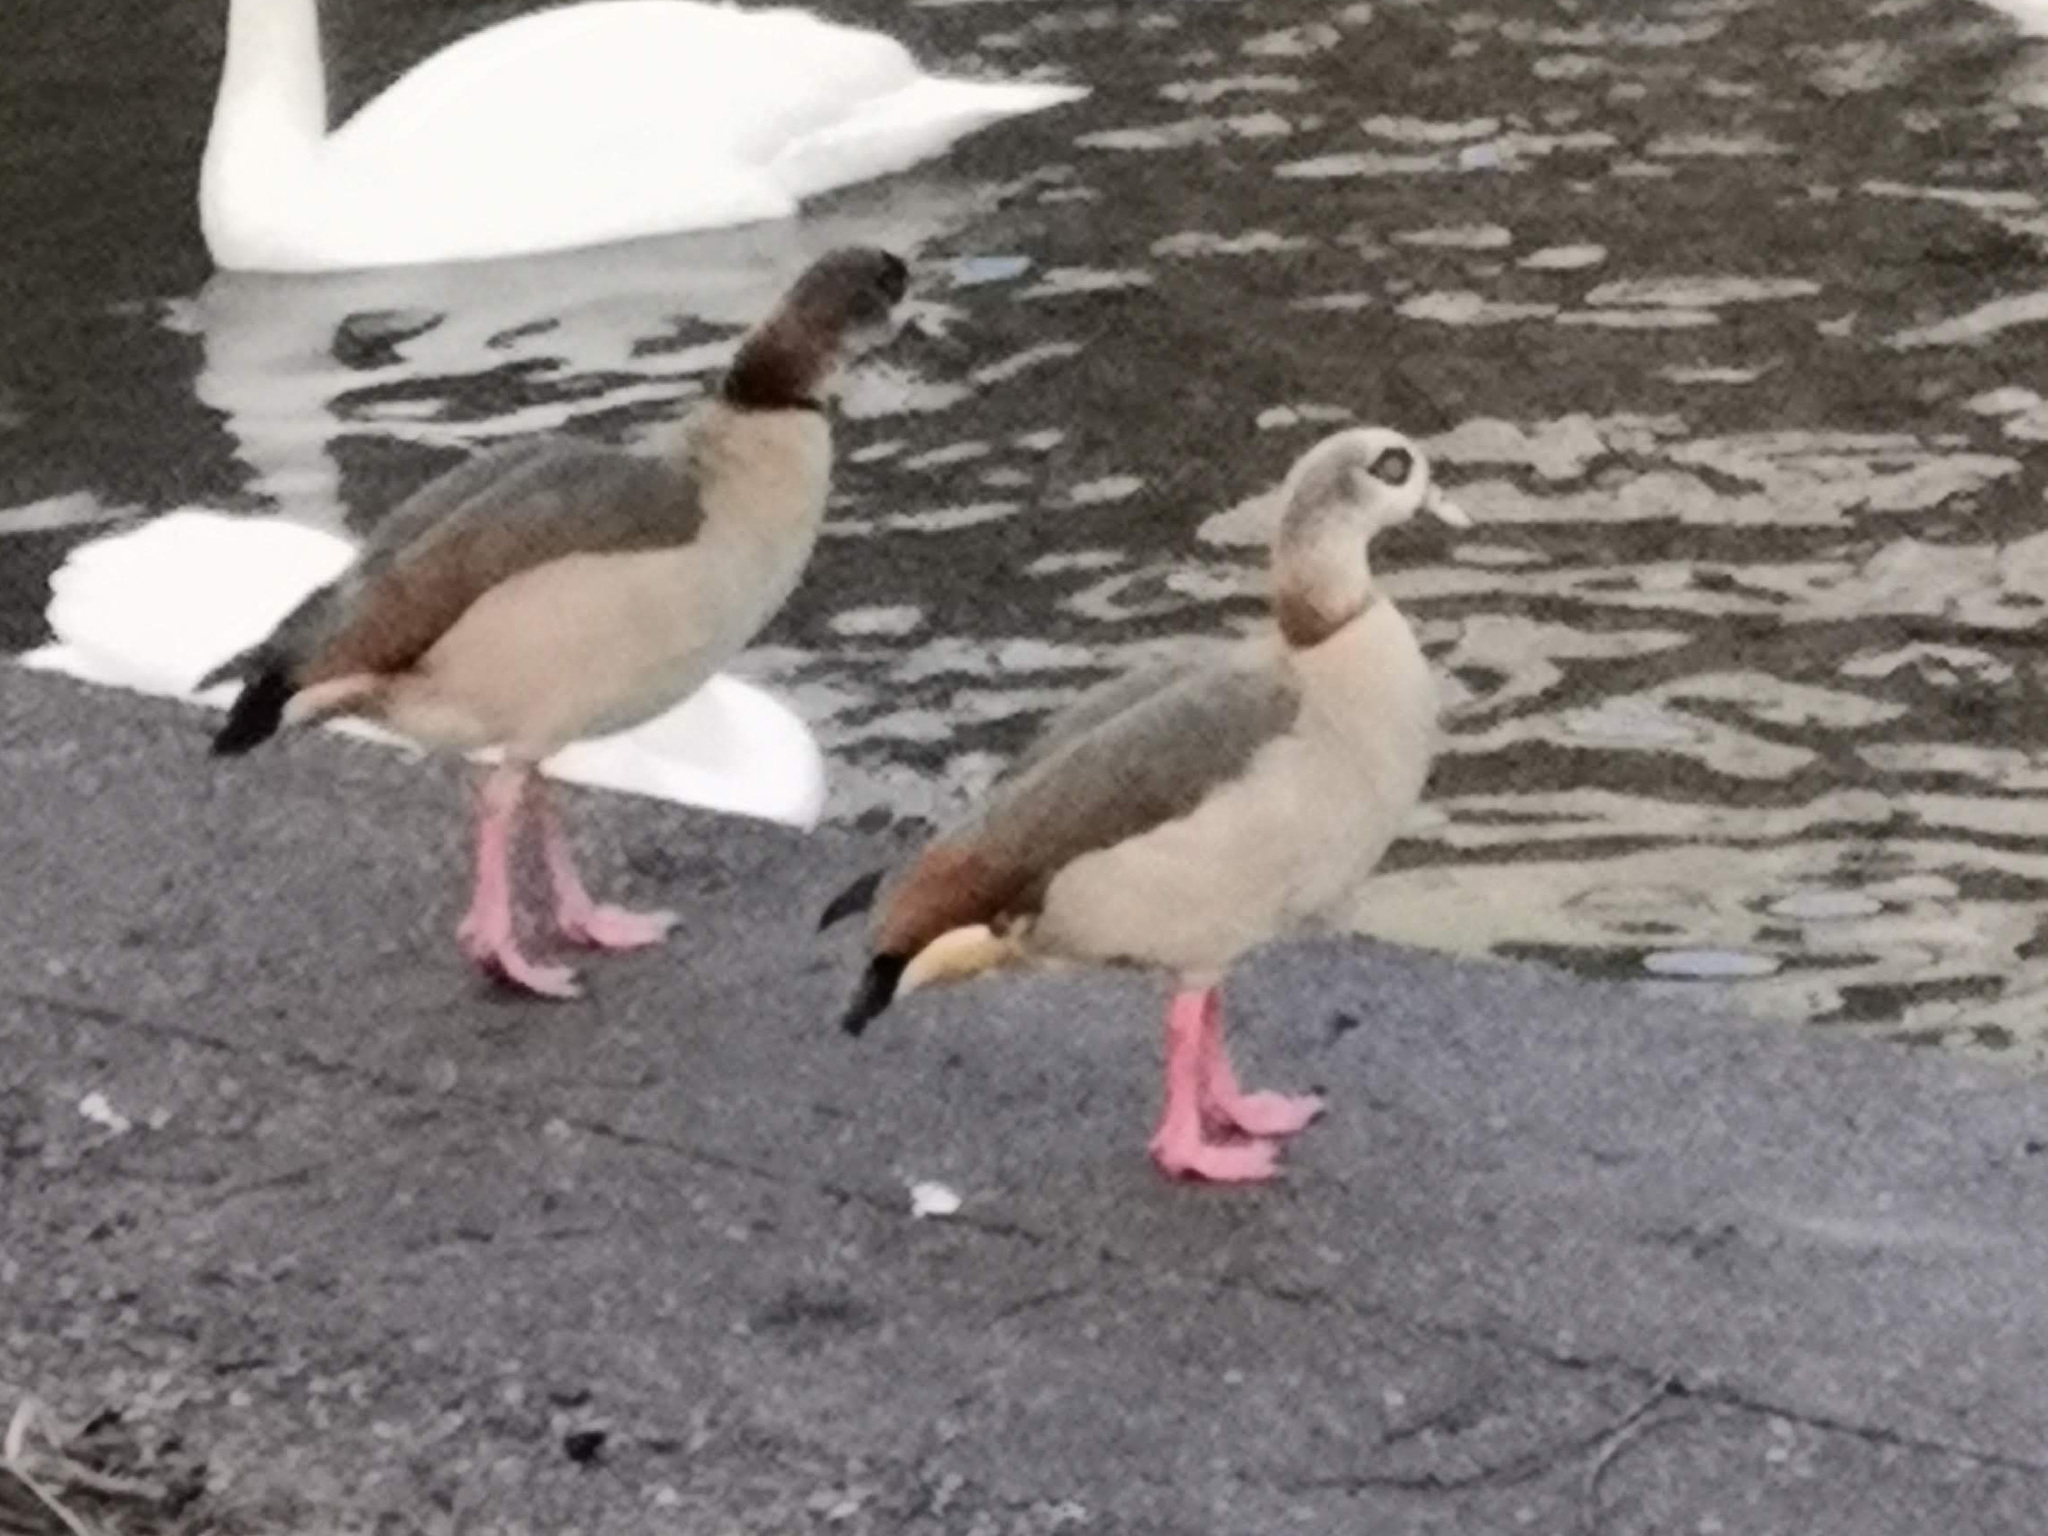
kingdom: Animalia
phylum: Chordata
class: Aves
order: Anseriformes
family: Anatidae
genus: Alopochen
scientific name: Alopochen aegyptiaca
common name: Egyptian goose
